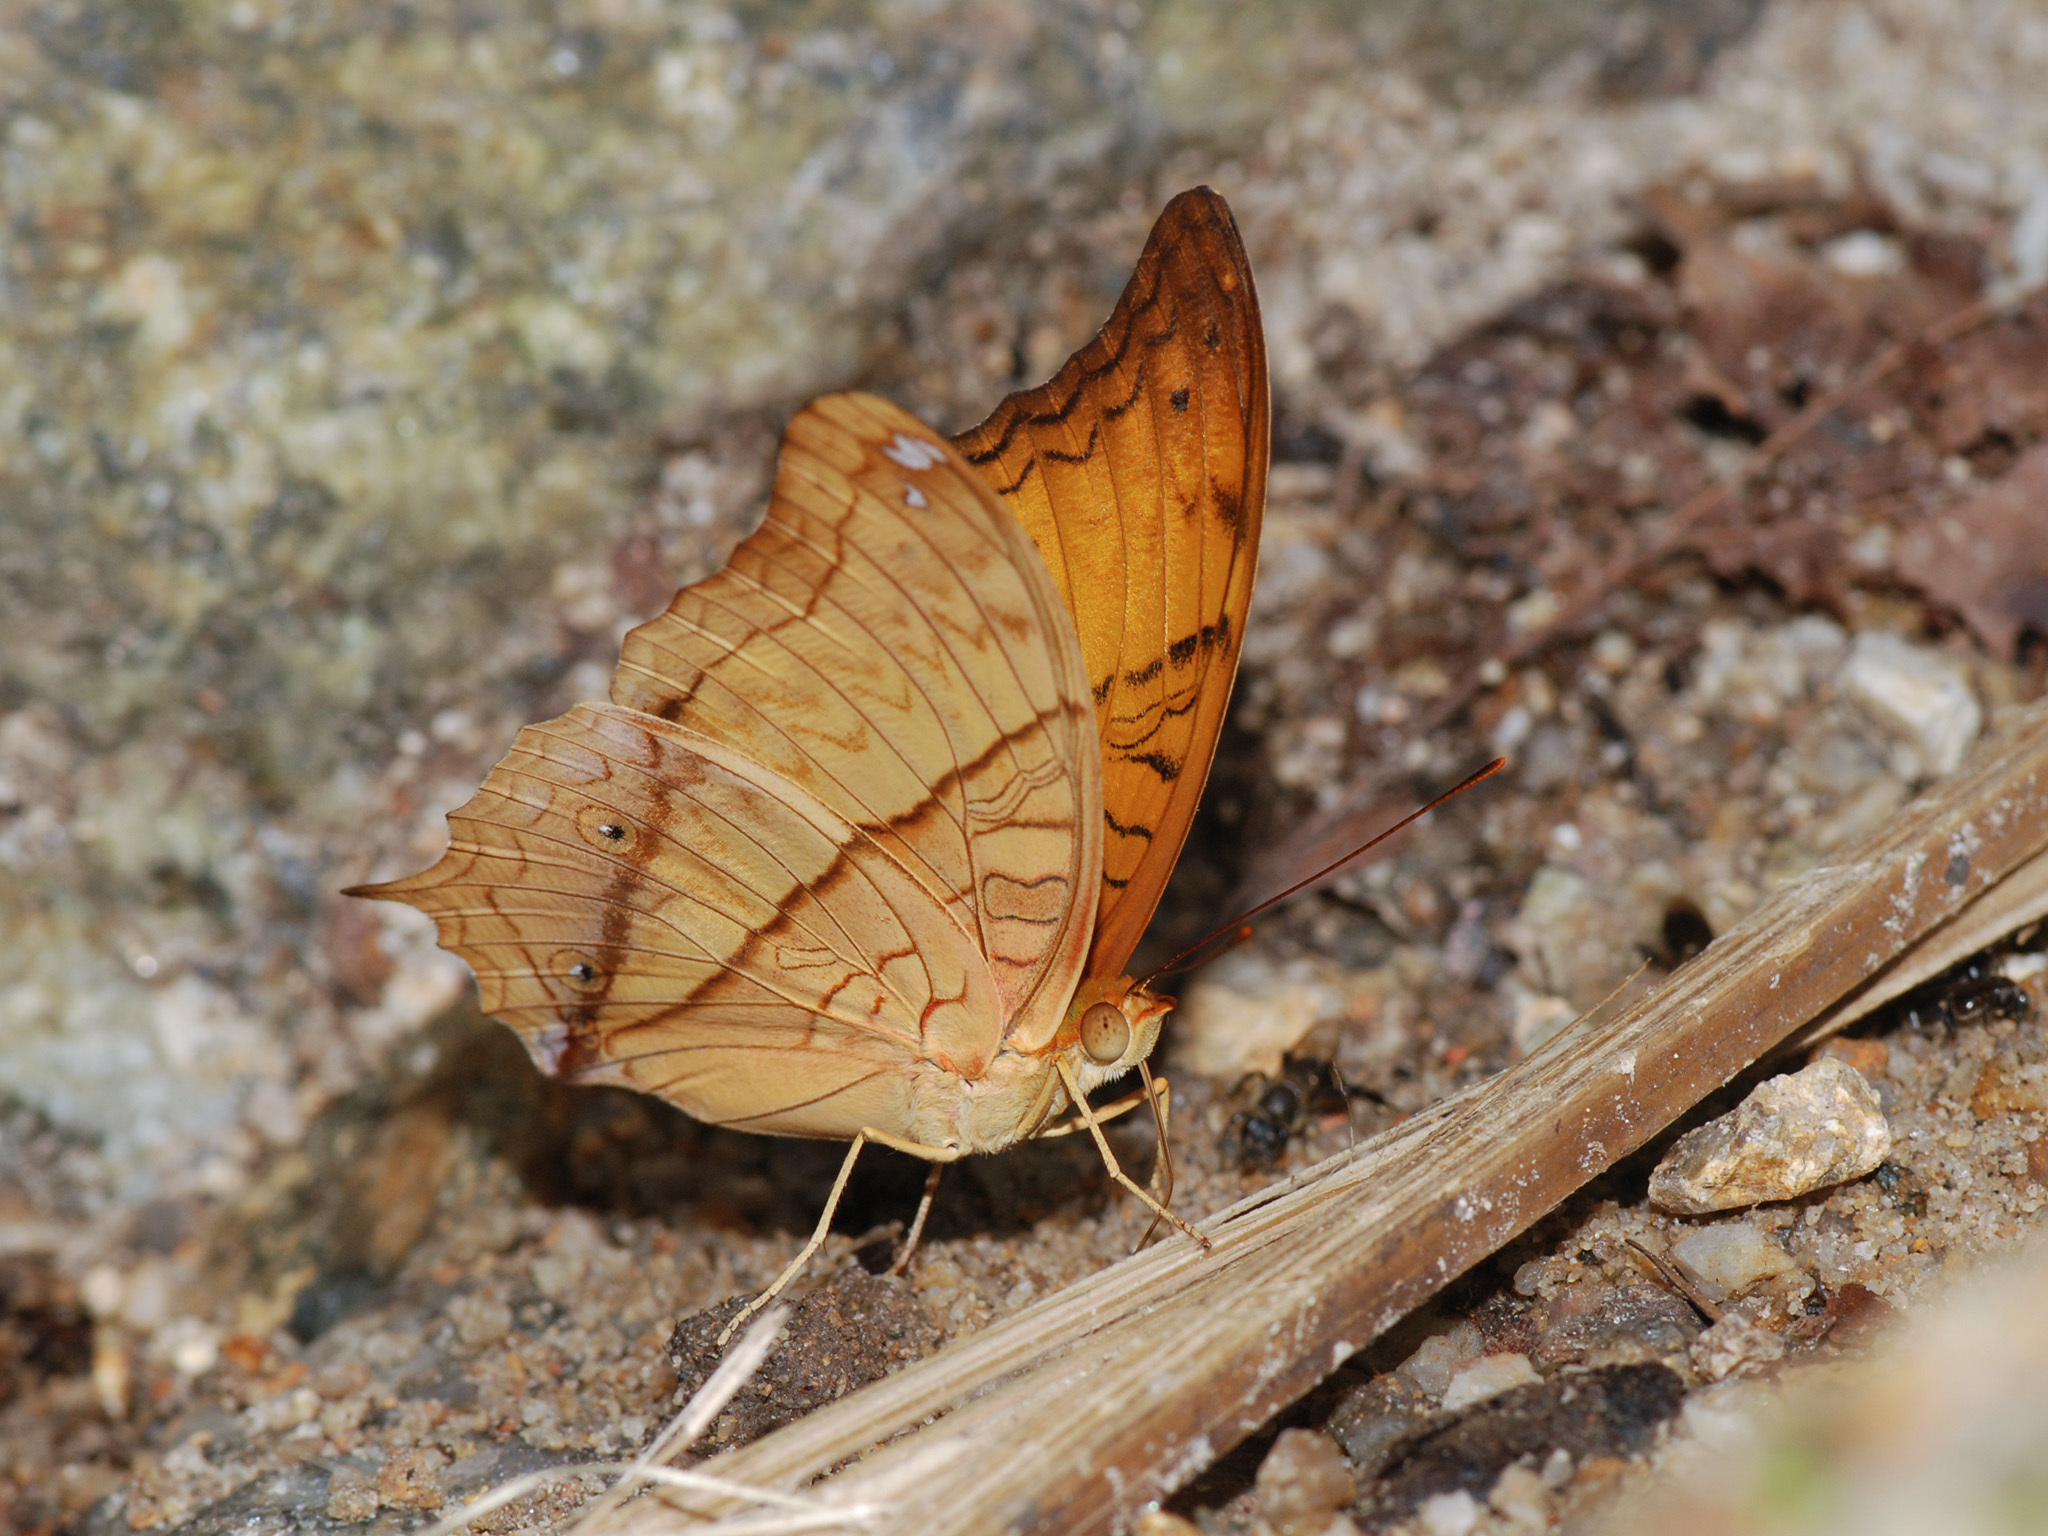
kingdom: Animalia
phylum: Arthropoda
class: Insecta
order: Lepidoptera
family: Nymphalidae
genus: Vindula
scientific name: Vindula deione
